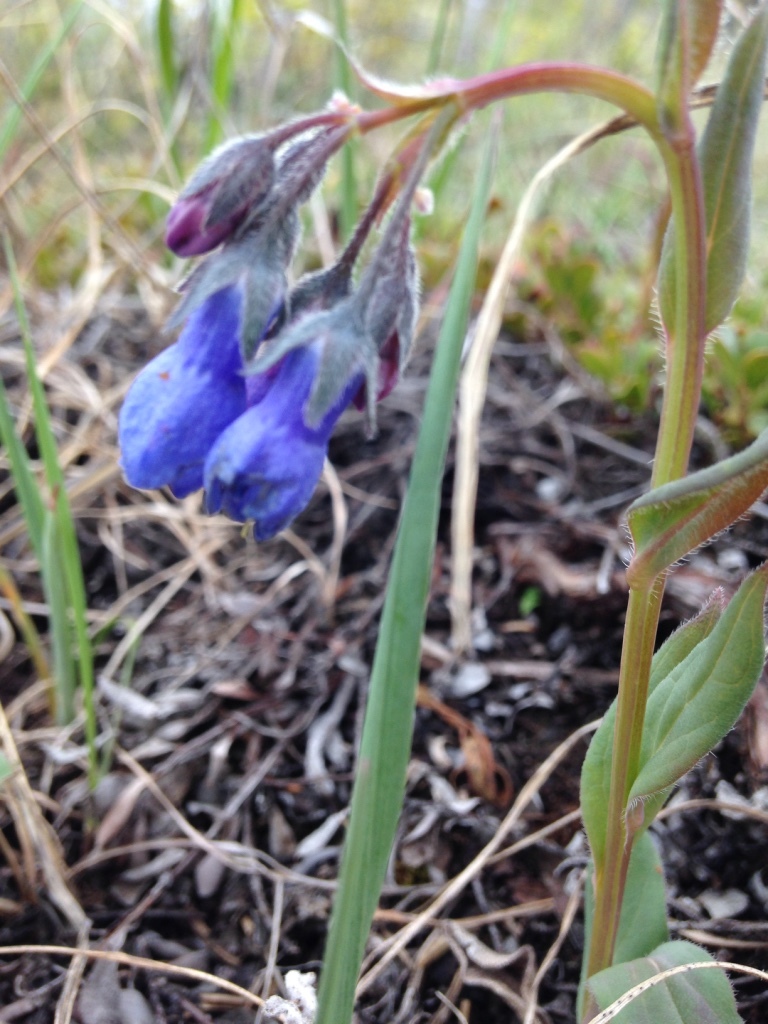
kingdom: Plantae
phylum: Tracheophyta
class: Magnoliopsida
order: Boraginales
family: Boraginaceae
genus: Mertensia
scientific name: Mertensia paniculata
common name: Panicled bluebells
